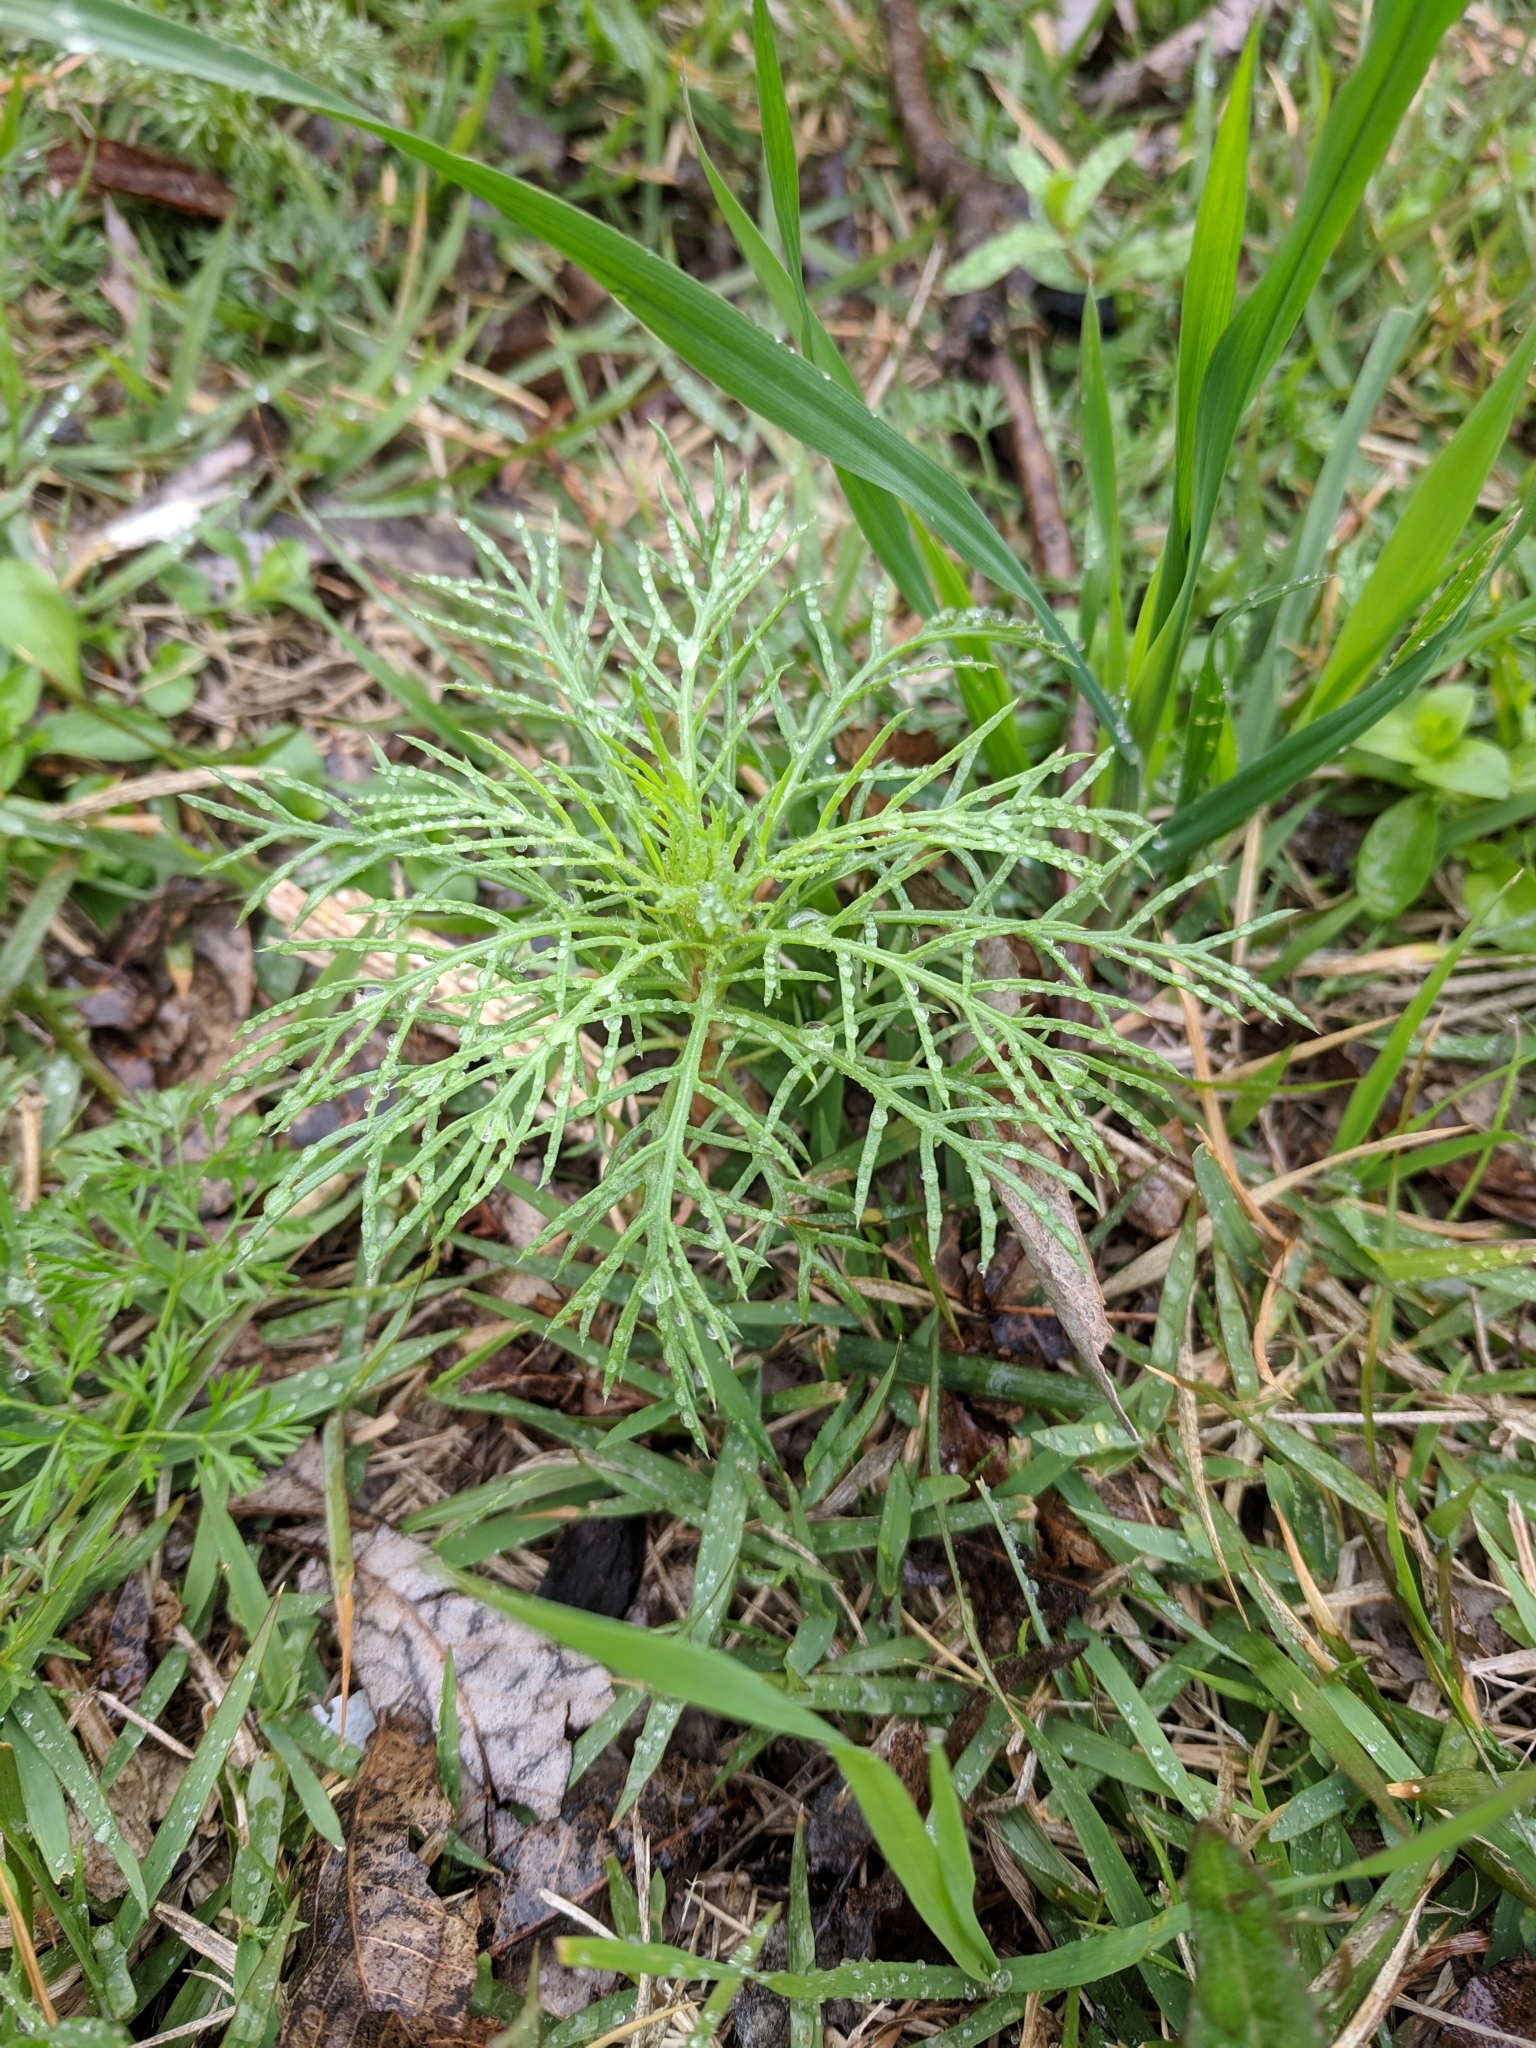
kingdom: Plantae
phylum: Tracheophyta
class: Magnoliopsida
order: Ericales
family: Polemoniaceae
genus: Ipomopsis
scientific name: Ipomopsis rubra
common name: Skyrocket
